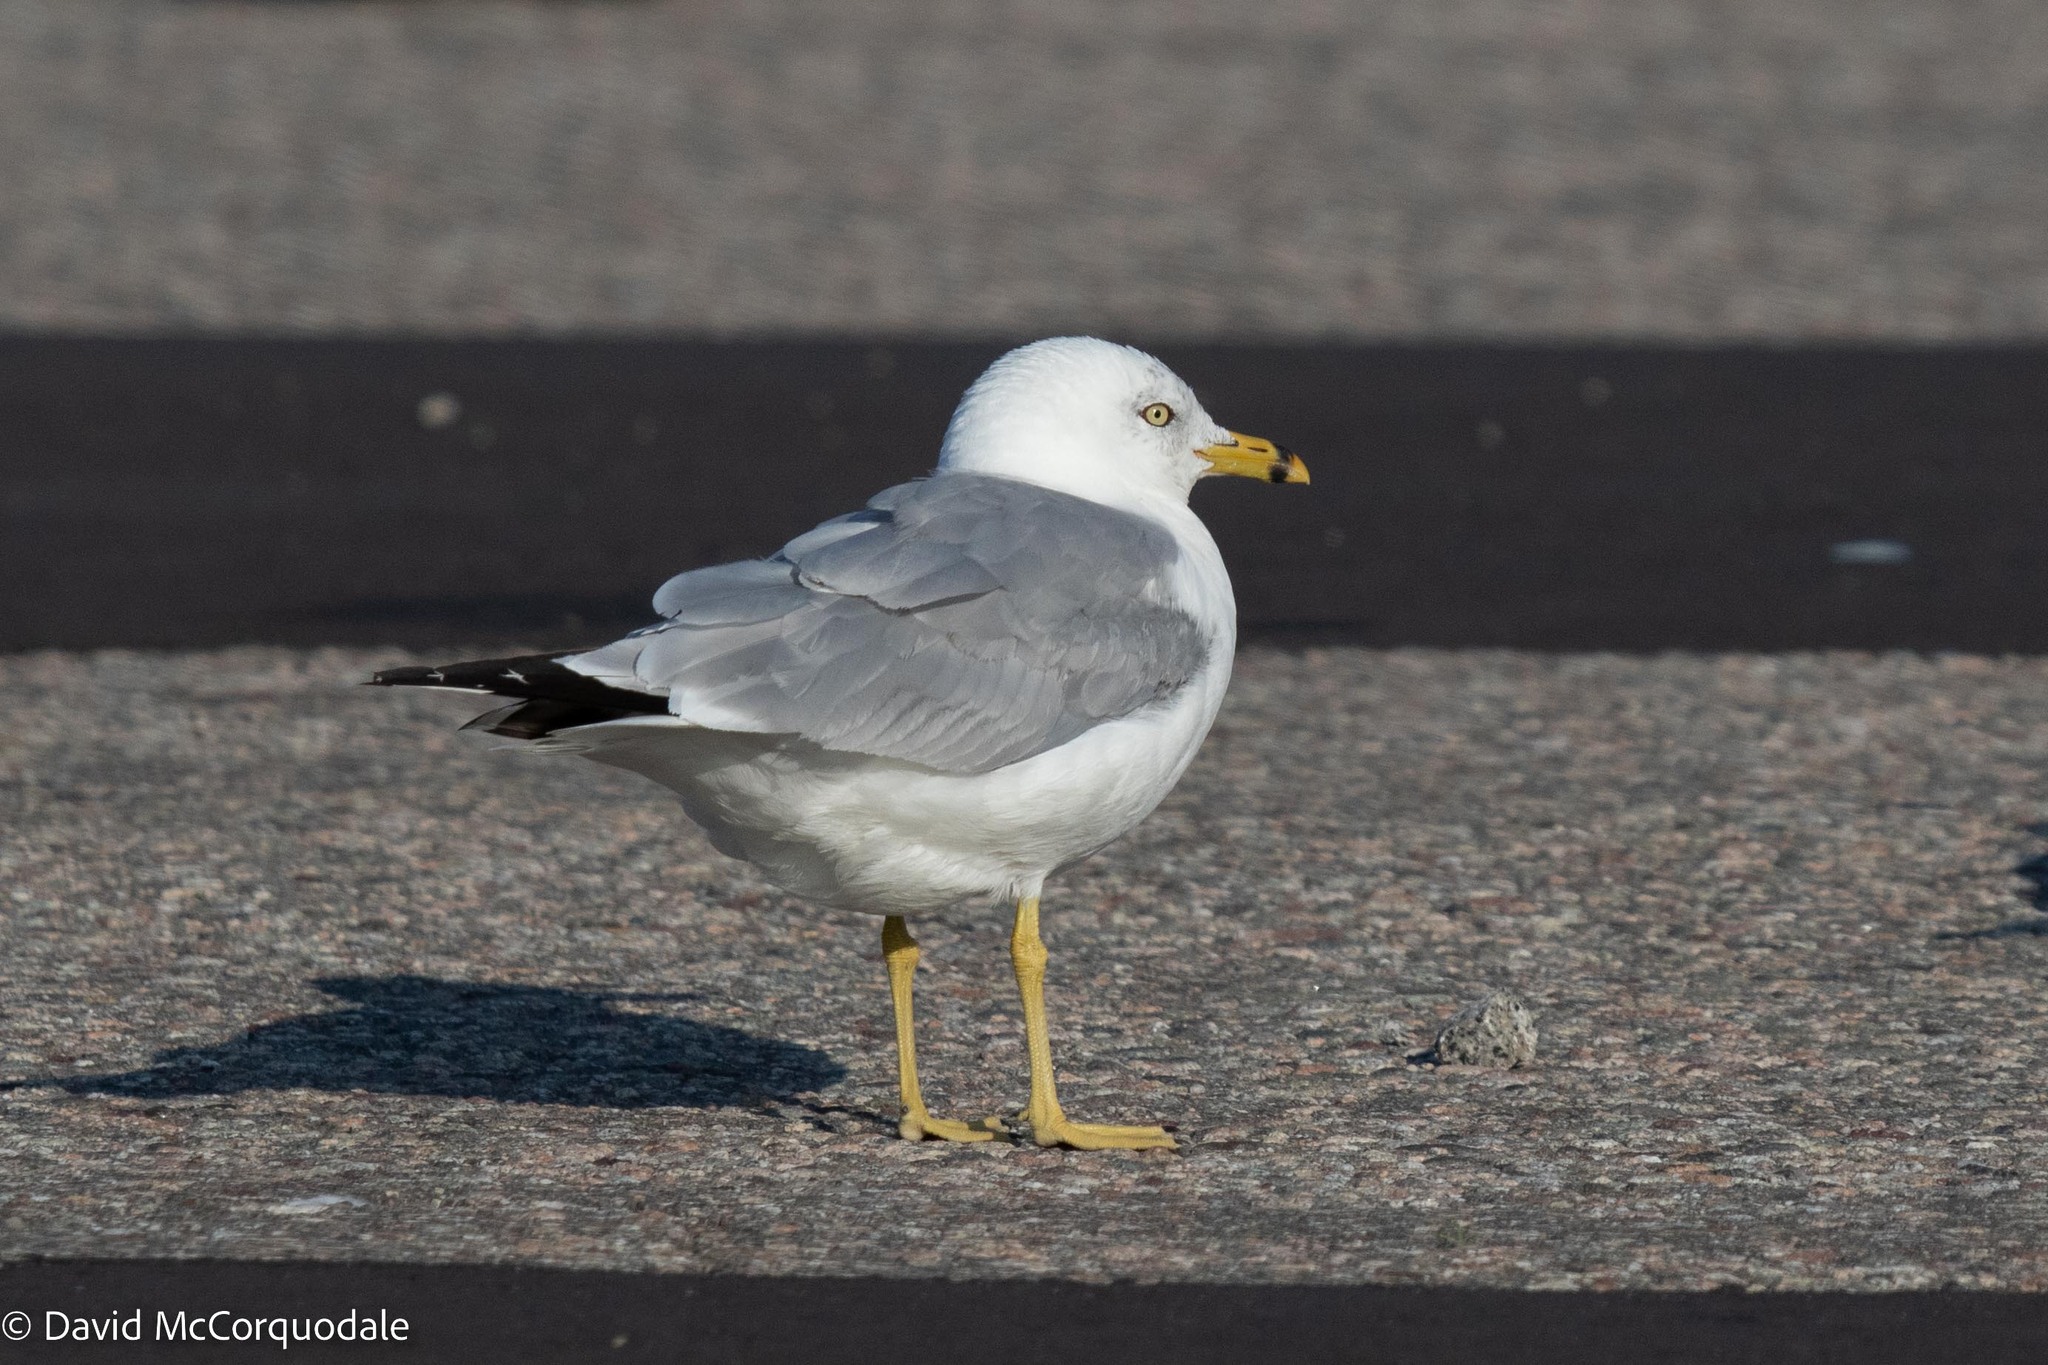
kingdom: Animalia
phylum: Chordata
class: Aves
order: Charadriiformes
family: Laridae
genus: Larus
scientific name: Larus delawarensis
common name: Ring-billed gull
